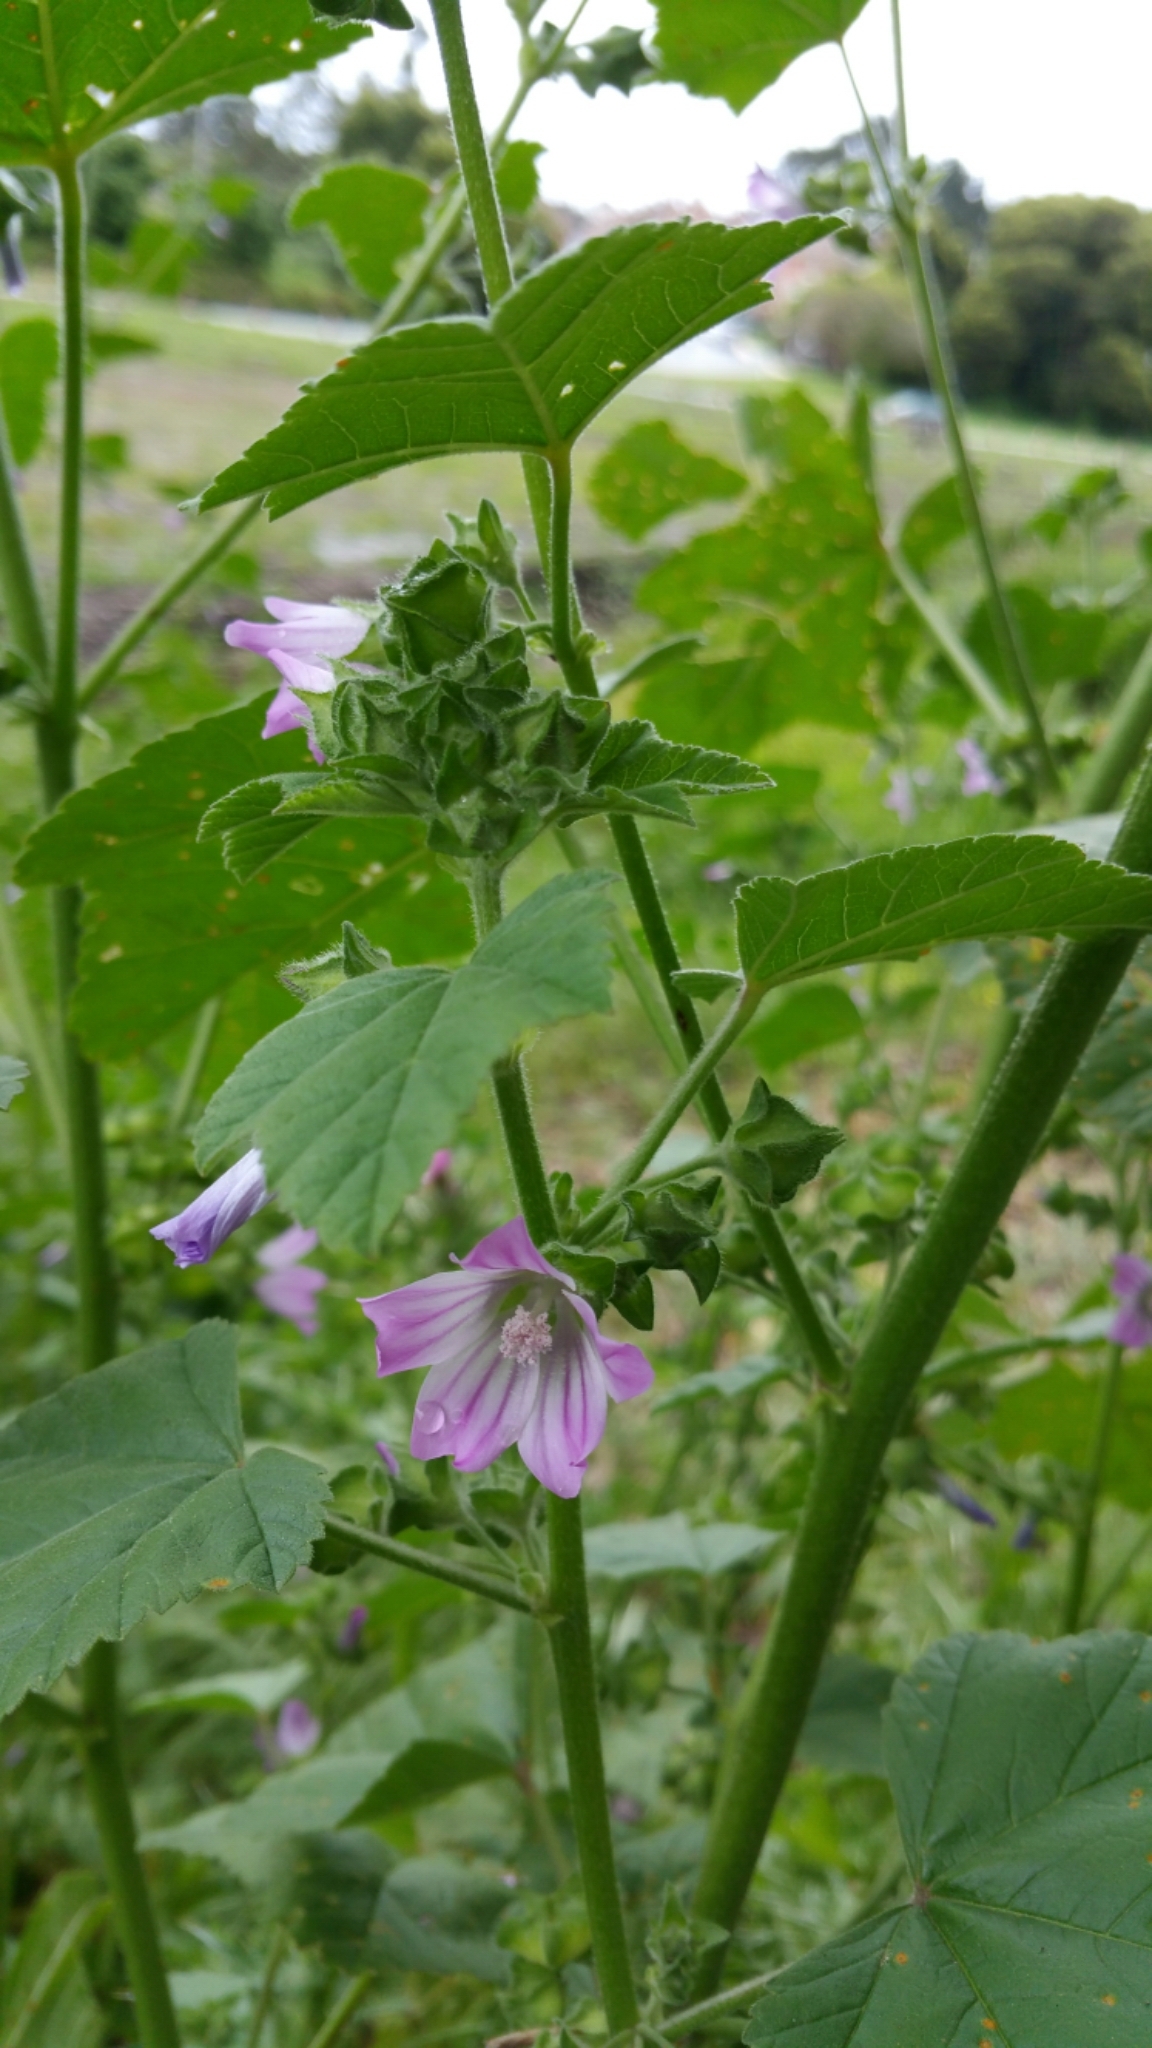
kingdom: Plantae
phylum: Tracheophyta
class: Magnoliopsida
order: Malvales
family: Malvaceae
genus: Malva
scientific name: Malva multiflora
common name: Cheeseweed
